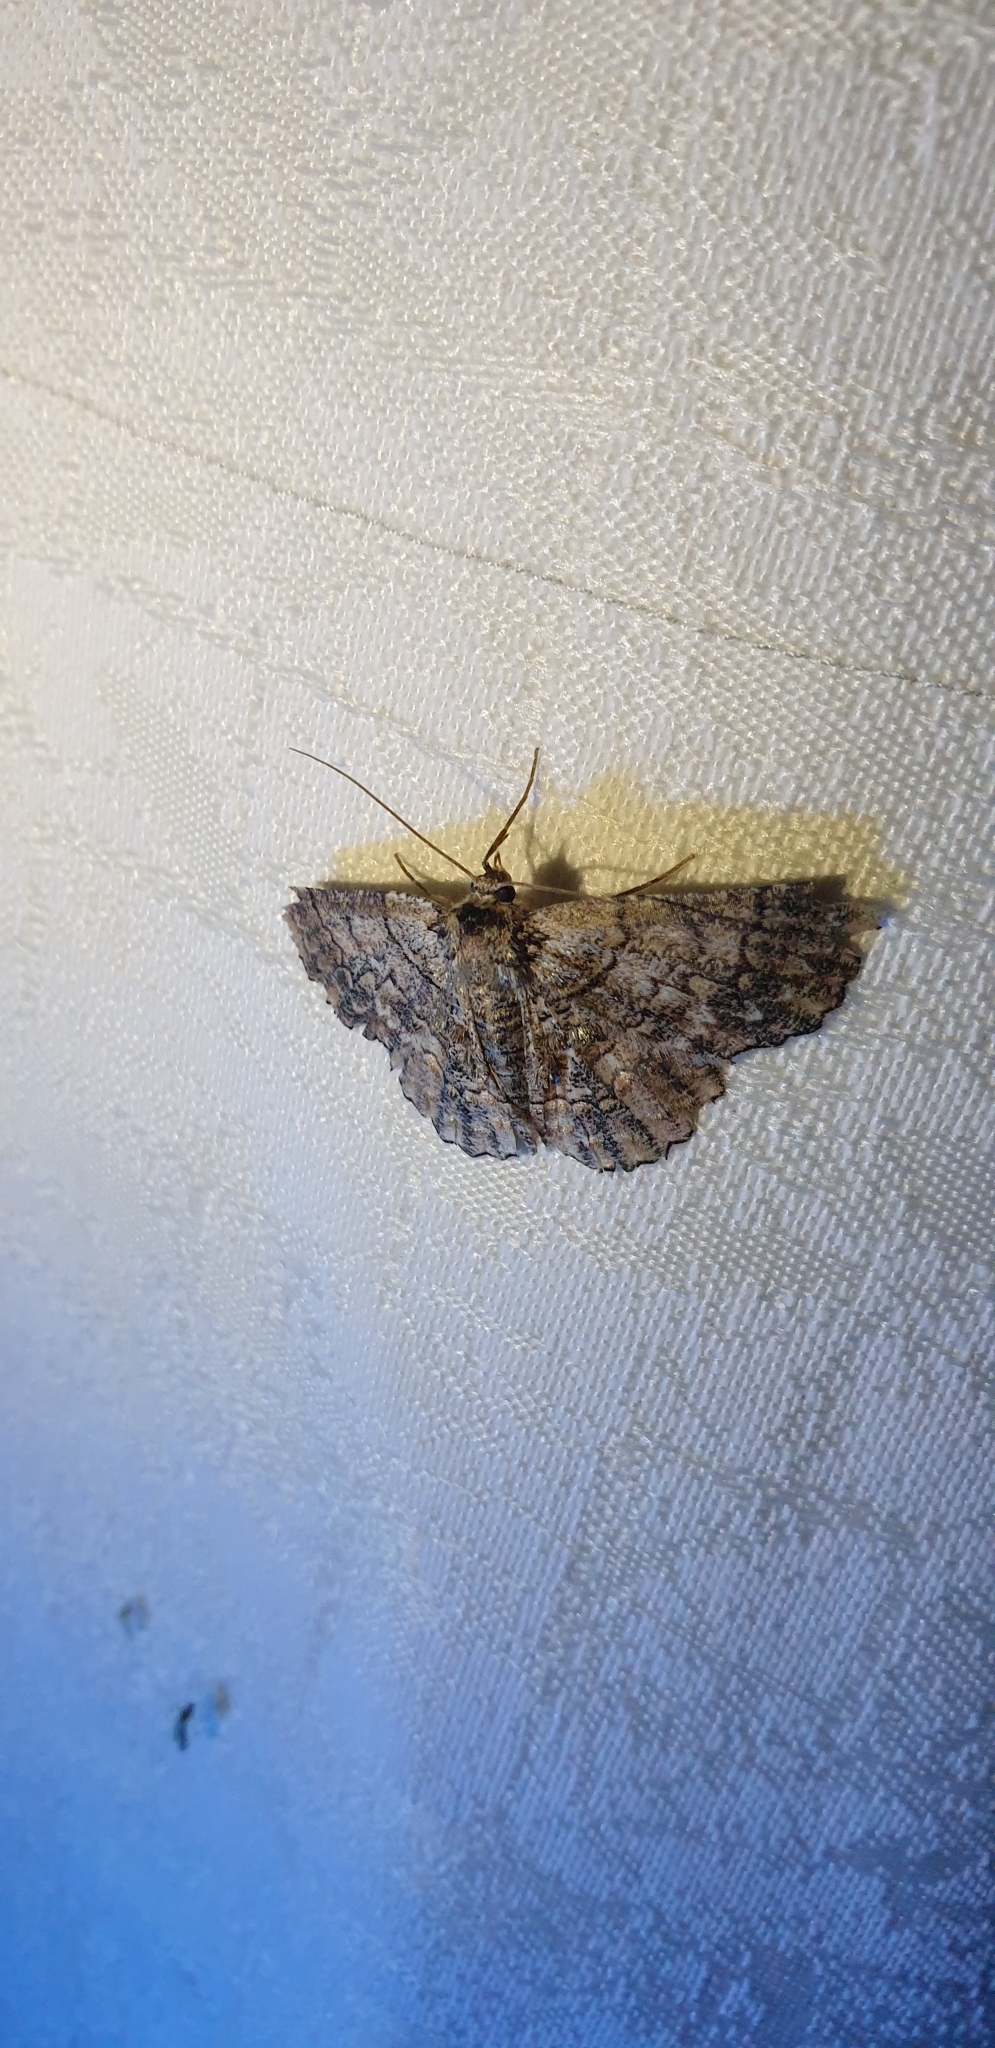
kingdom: Animalia
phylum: Arthropoda
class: Insecta
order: Lepidoptera
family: Geometridae
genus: Hypodoxa
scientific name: Hypodoxa emiliaria
